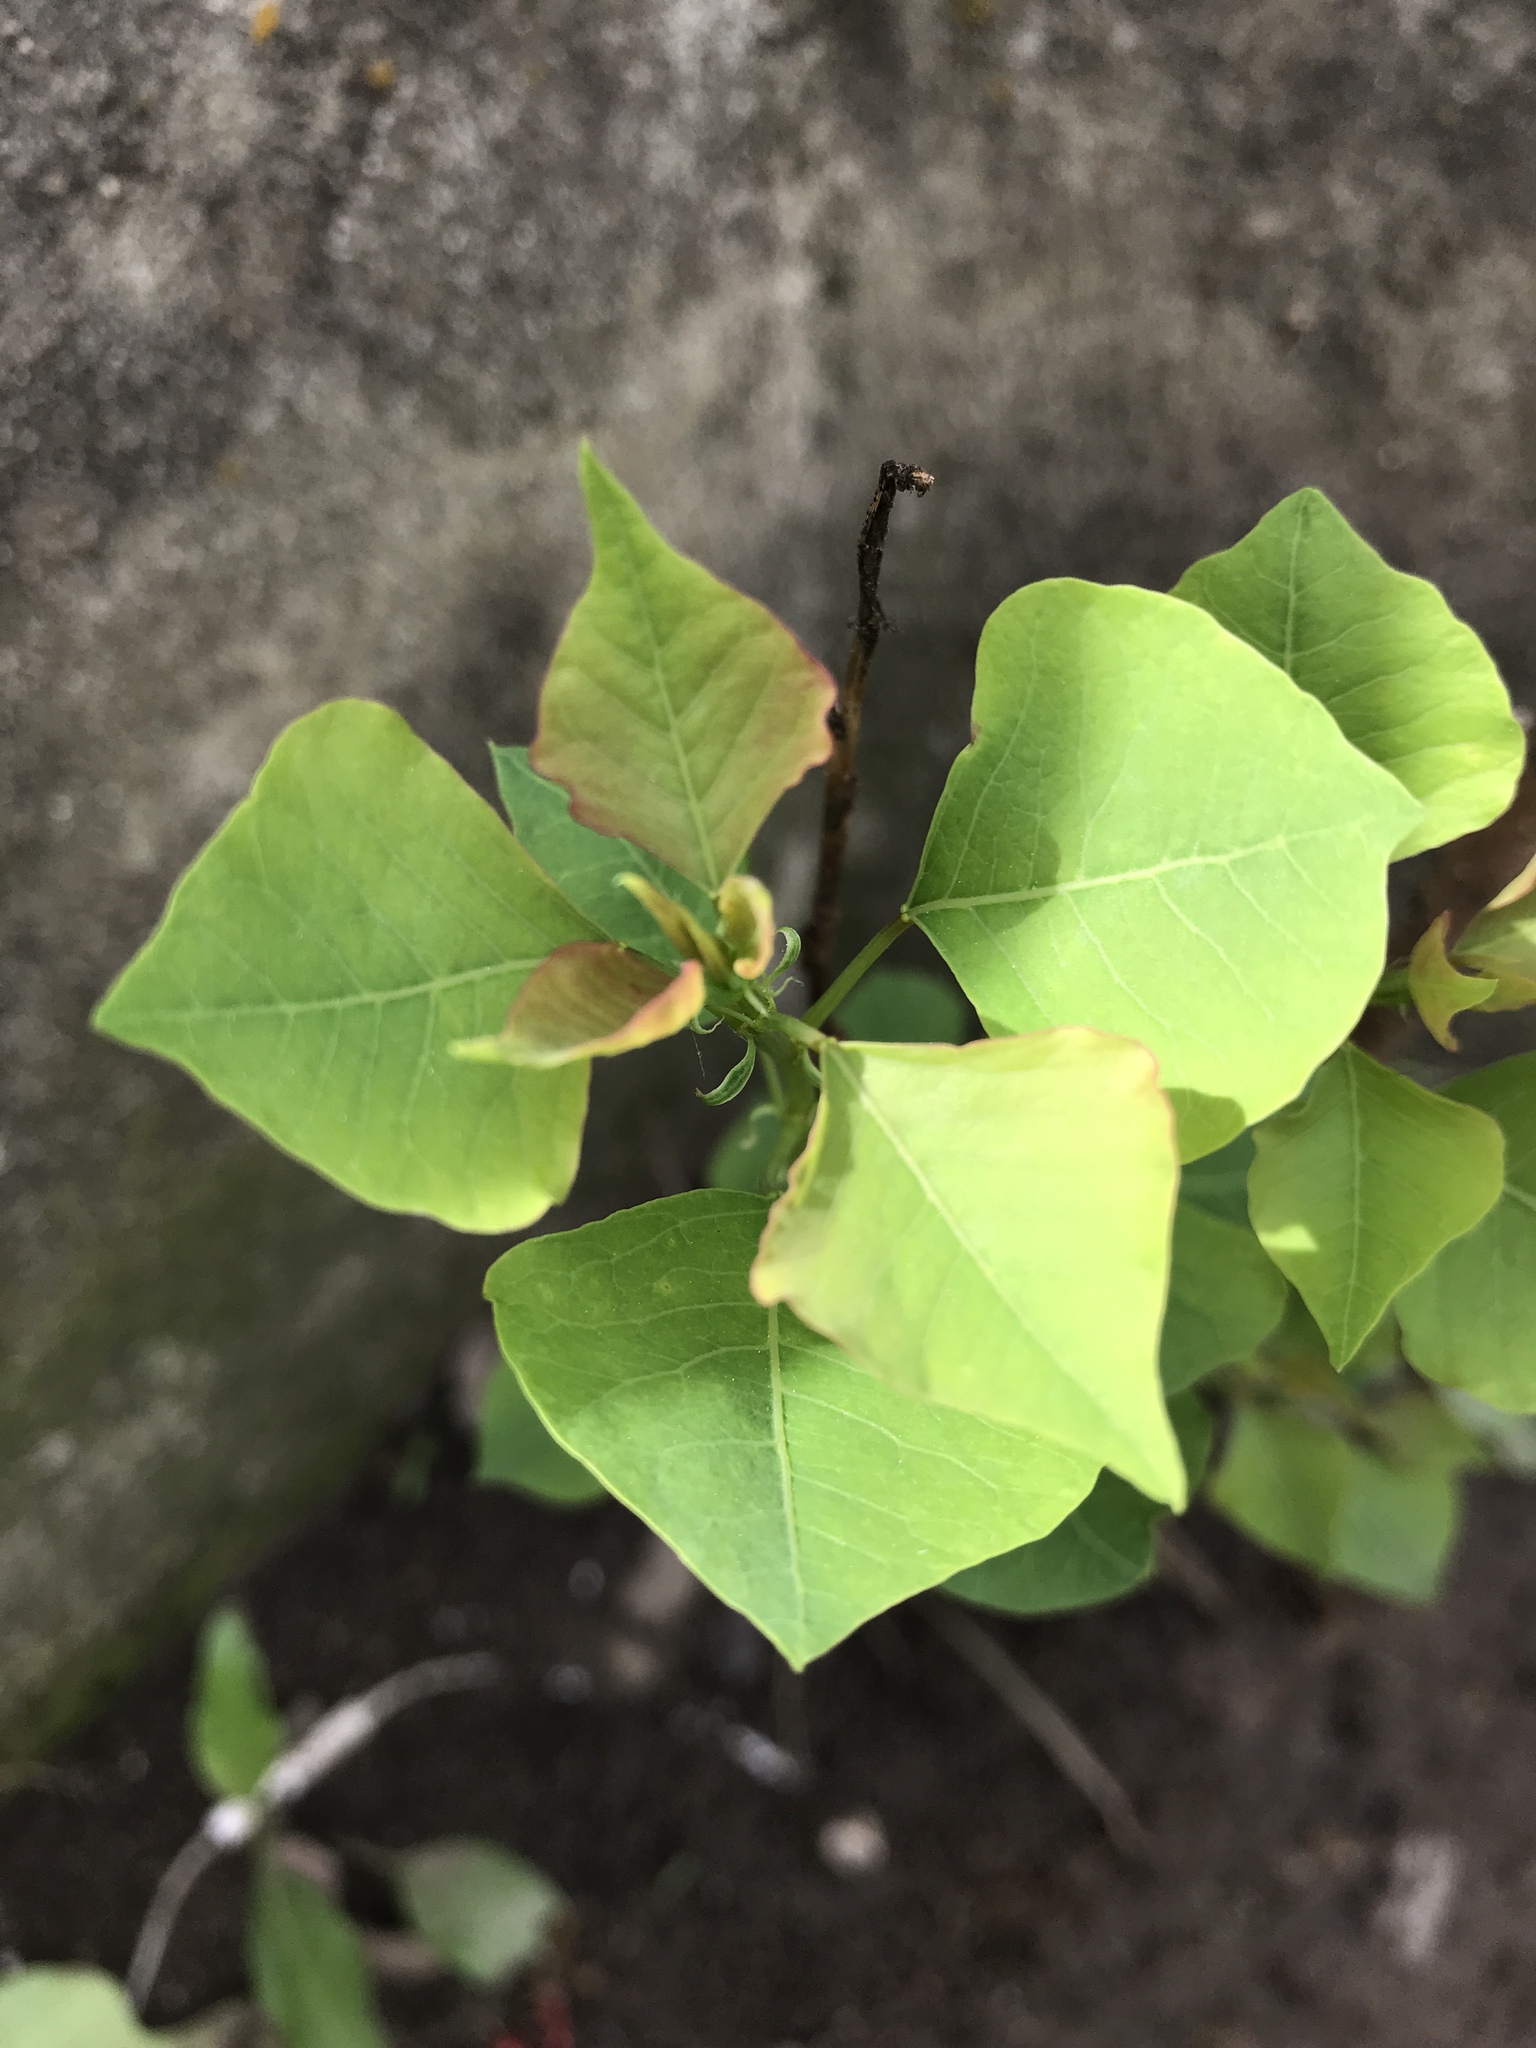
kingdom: Plantae
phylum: Tracheophyta
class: Magnoliopsida
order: Malpighiales
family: Euphorbiaceae
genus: Triadica
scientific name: Triadica sebifera
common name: Chinese tallow
